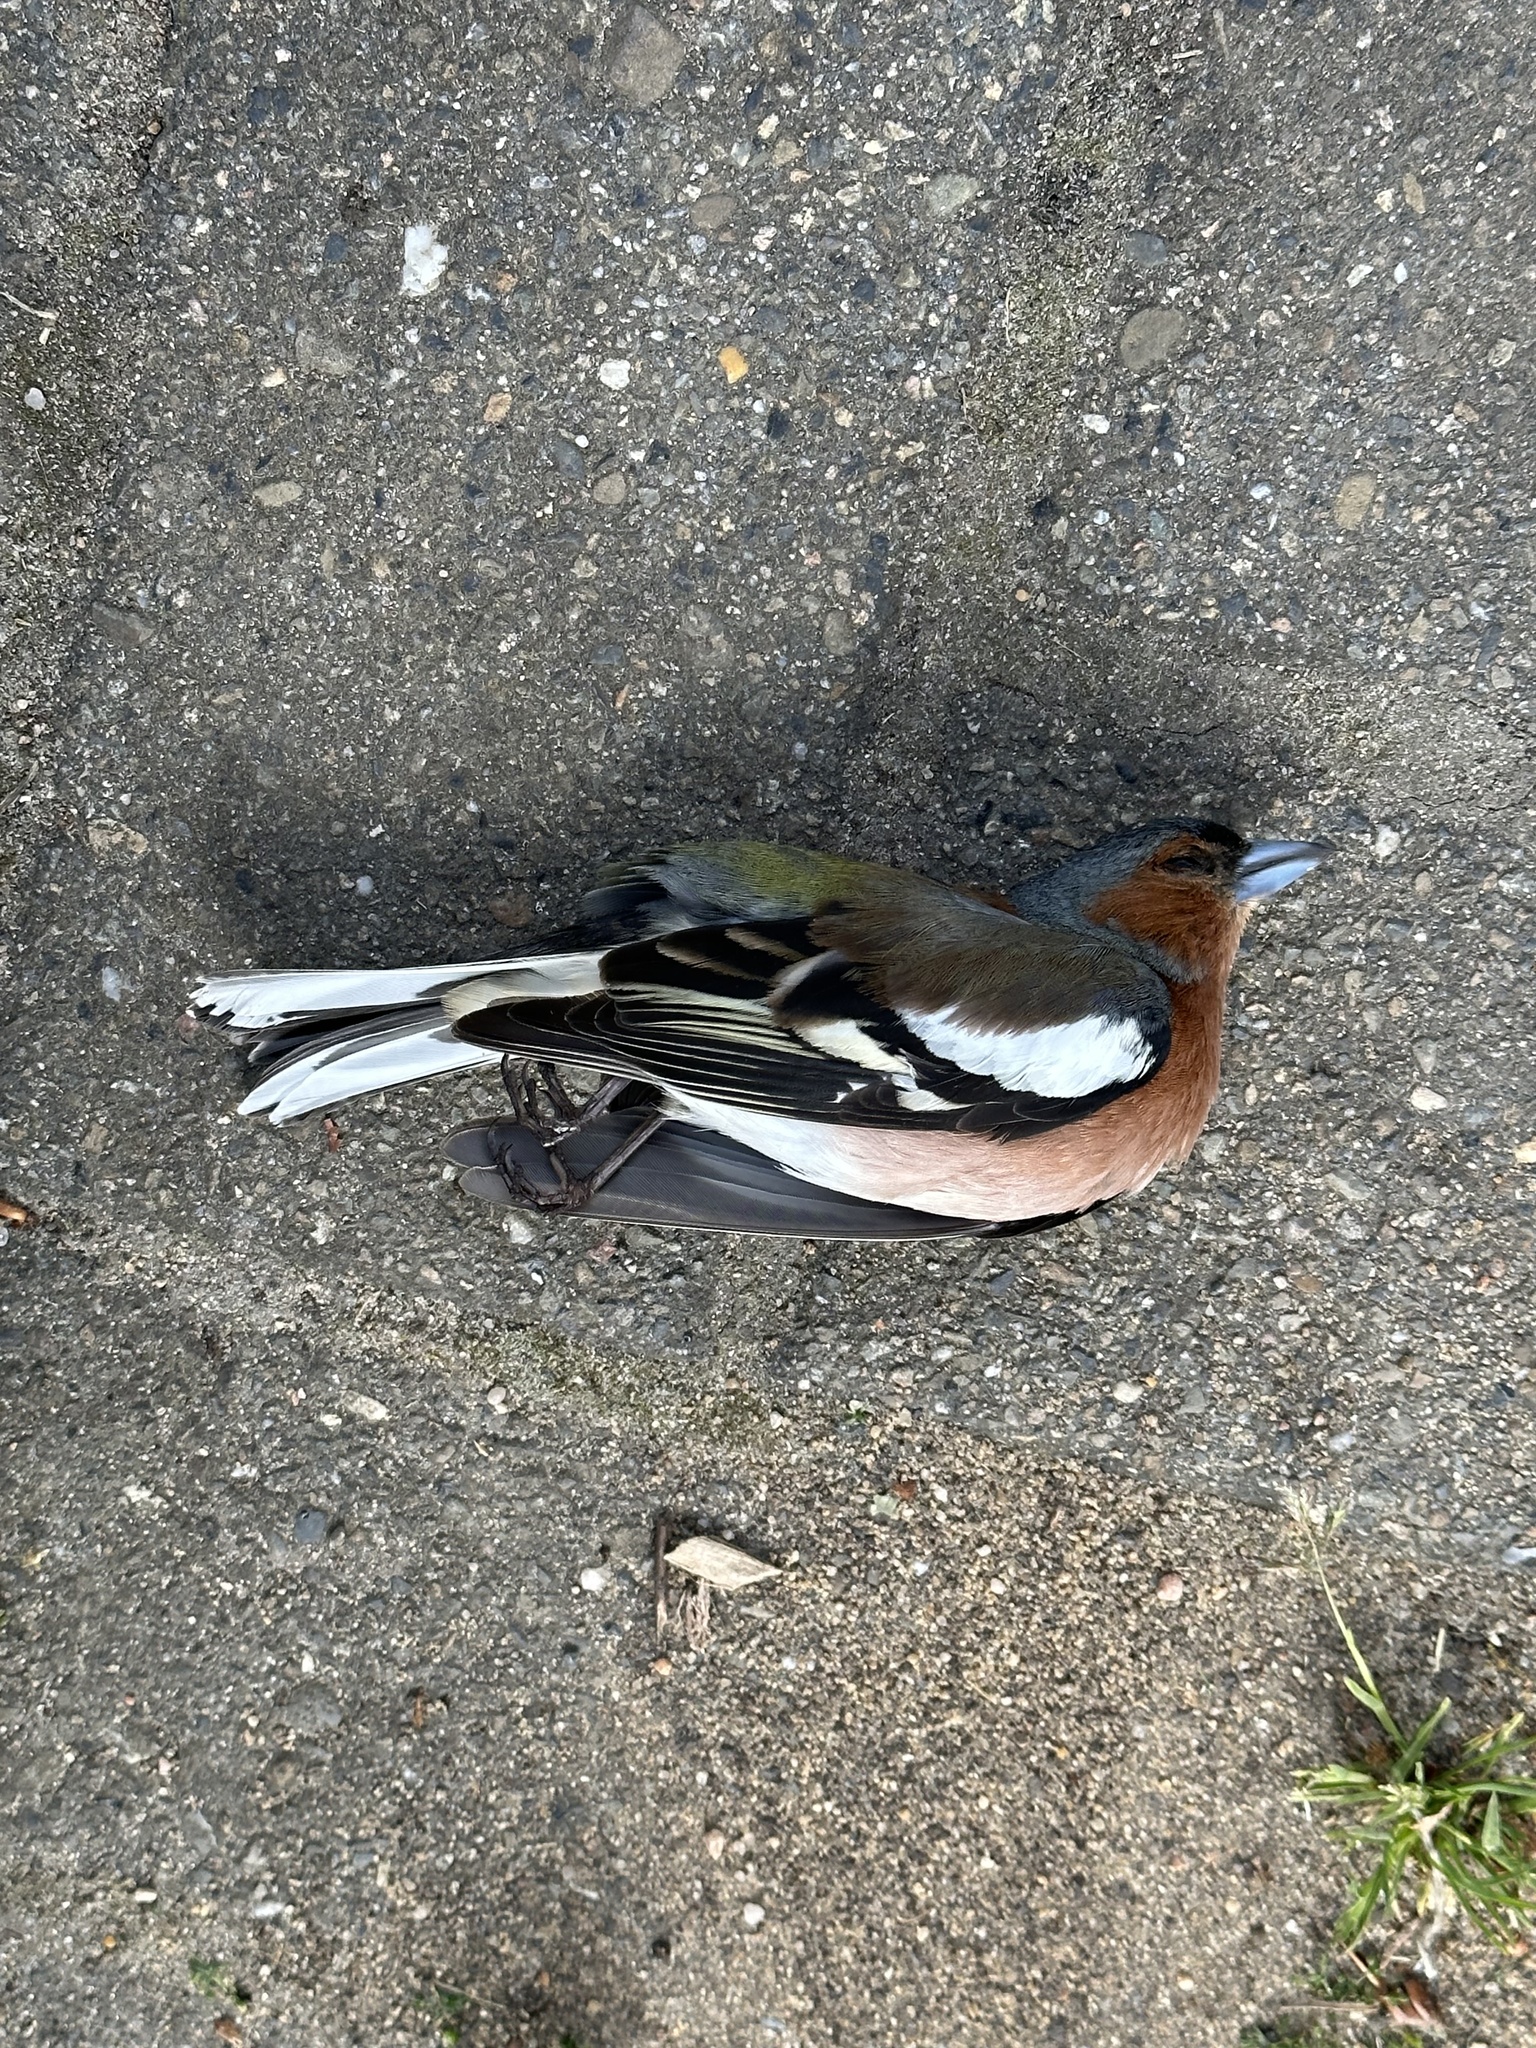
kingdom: Animalia
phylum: Chordata
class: Aves
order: Passeriformes
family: Fringillidae
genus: Fringilla
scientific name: Fringilla coelebs
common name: Common chaffinch
